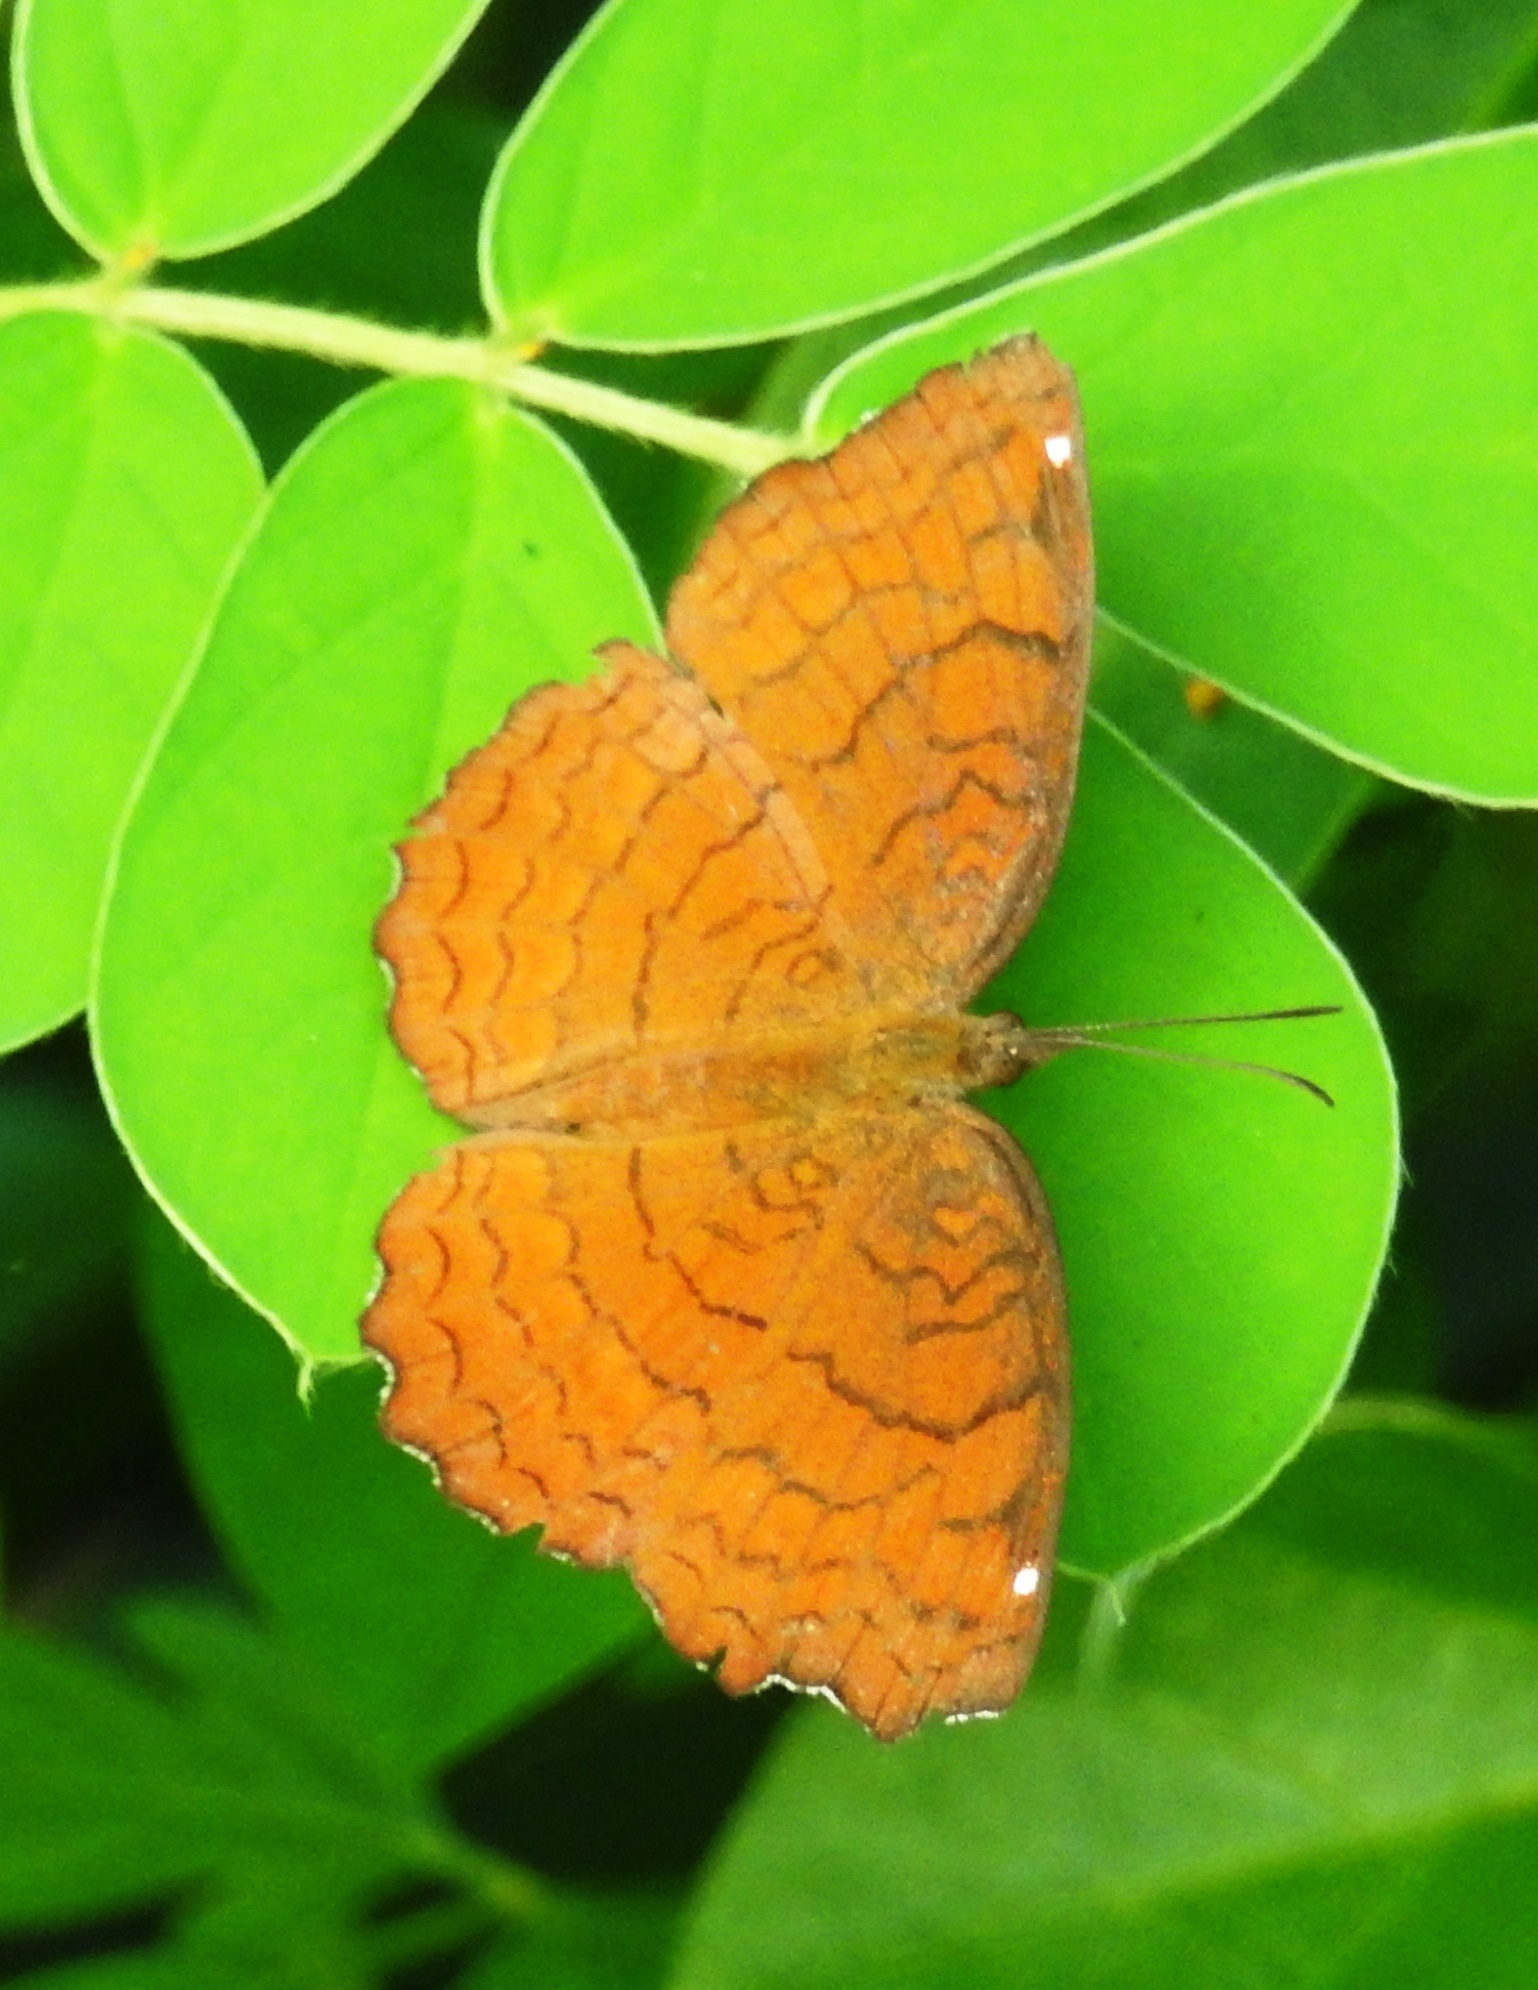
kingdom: Animalia
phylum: Arthropoda
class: Insecta
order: Lepidoptera
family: Nymphalidae
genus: Ariadne
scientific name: Ariadne ariadne
